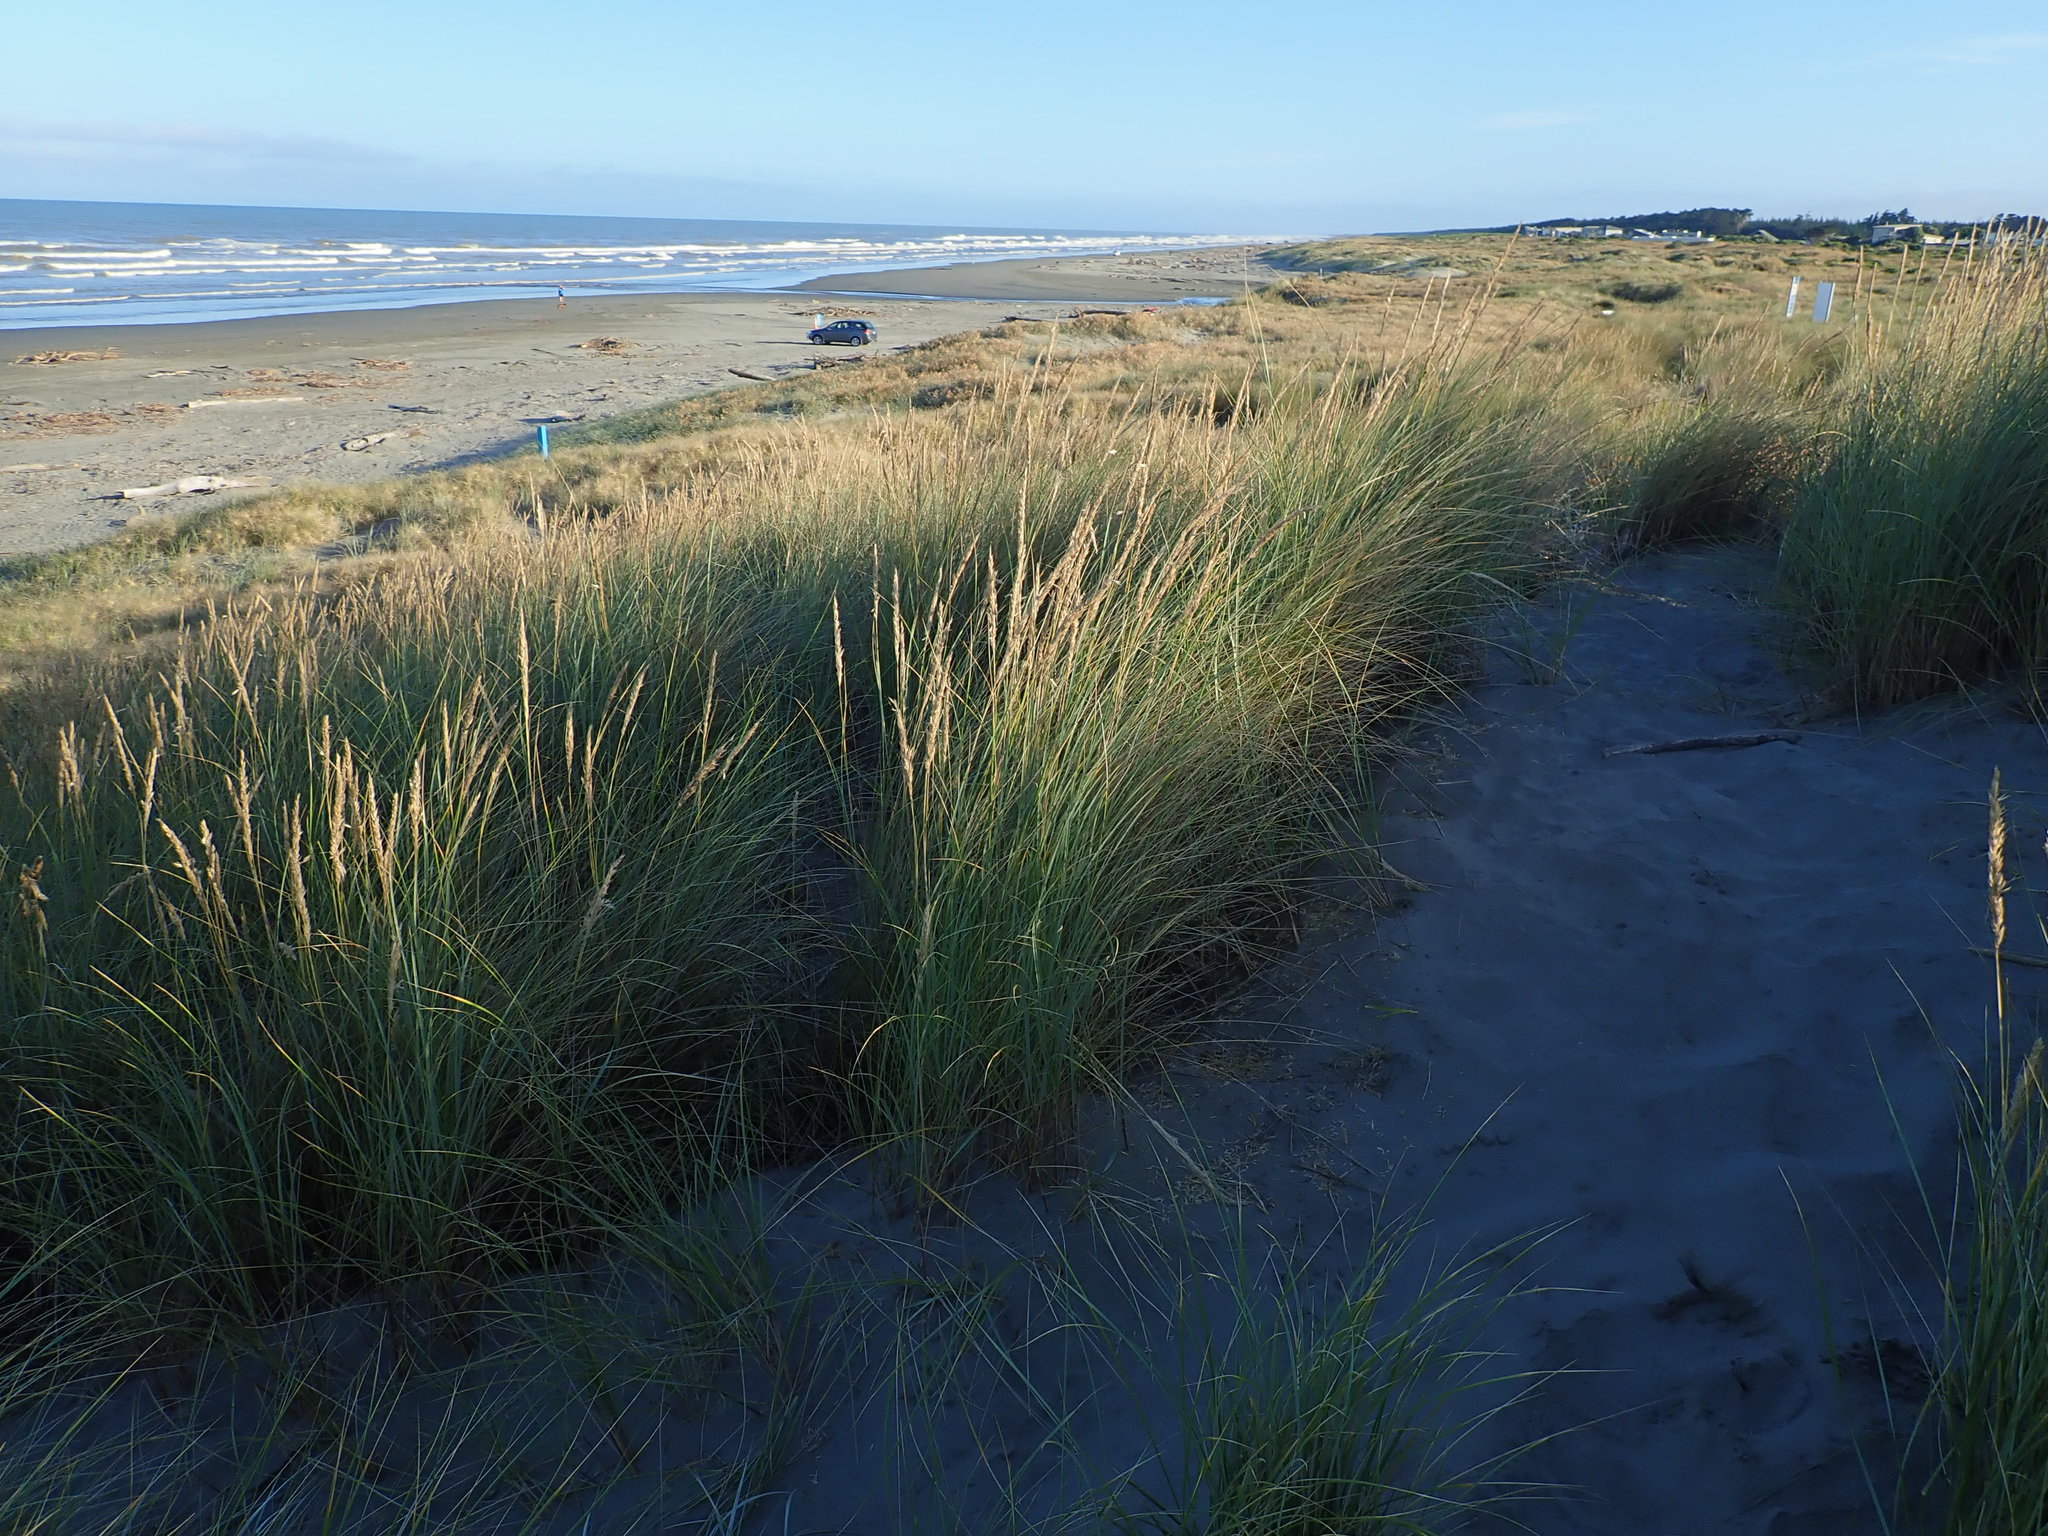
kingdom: Plantae
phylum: Tracheophyta
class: Liliopsida
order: Poales
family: Poaceae
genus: Calamagrostis
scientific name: Calamagrostis arenaria
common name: European beachgrass
